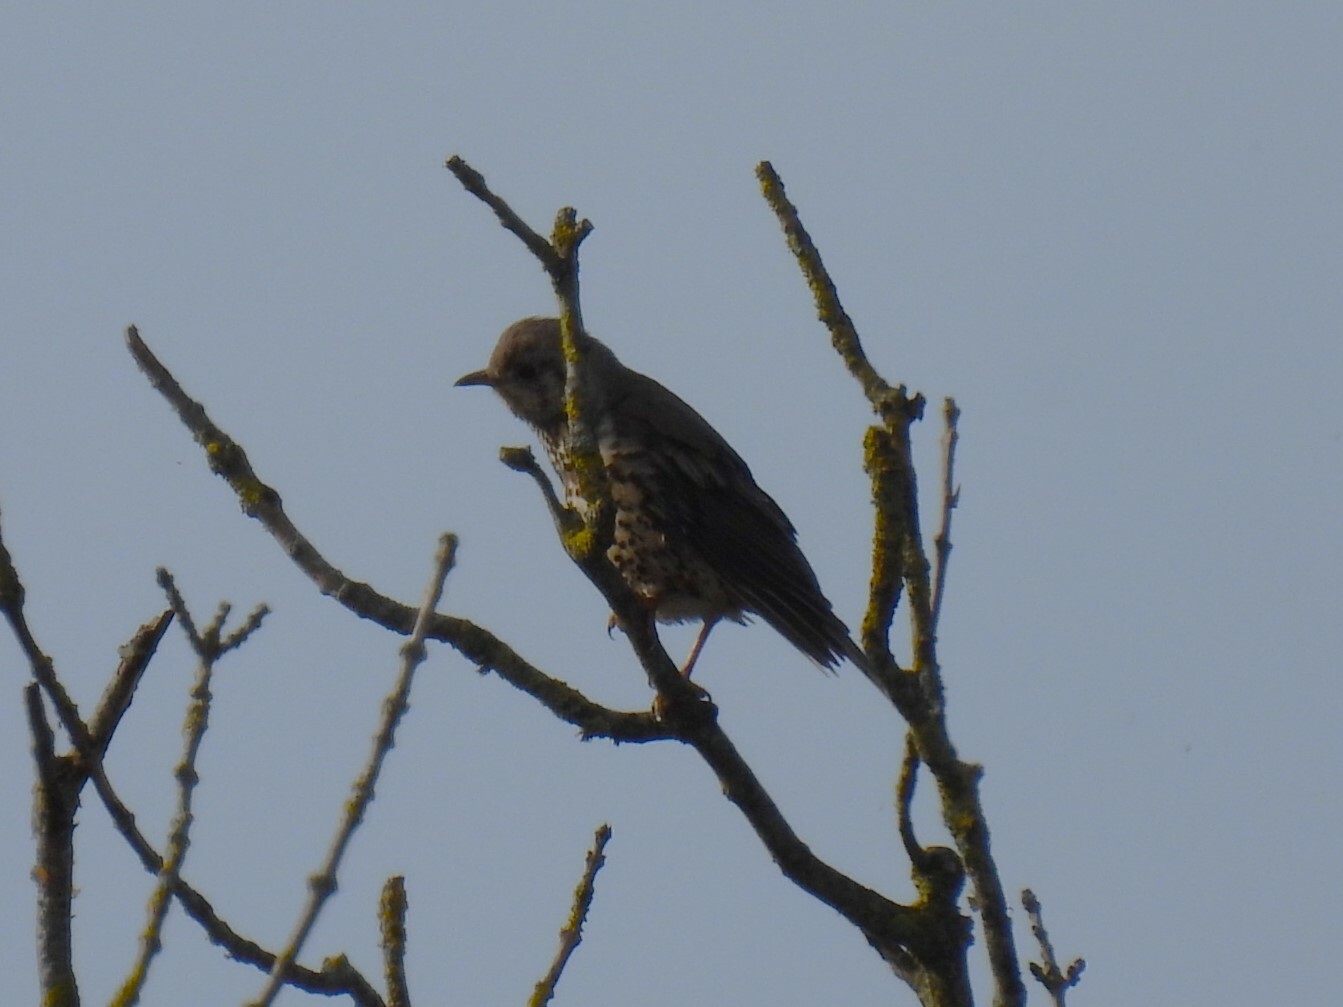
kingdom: Animalia
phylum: Chordata
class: Aves
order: Passeriformes
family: Turdidae
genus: Turdus
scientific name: Turdus viscivorus
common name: Mistle thrush
